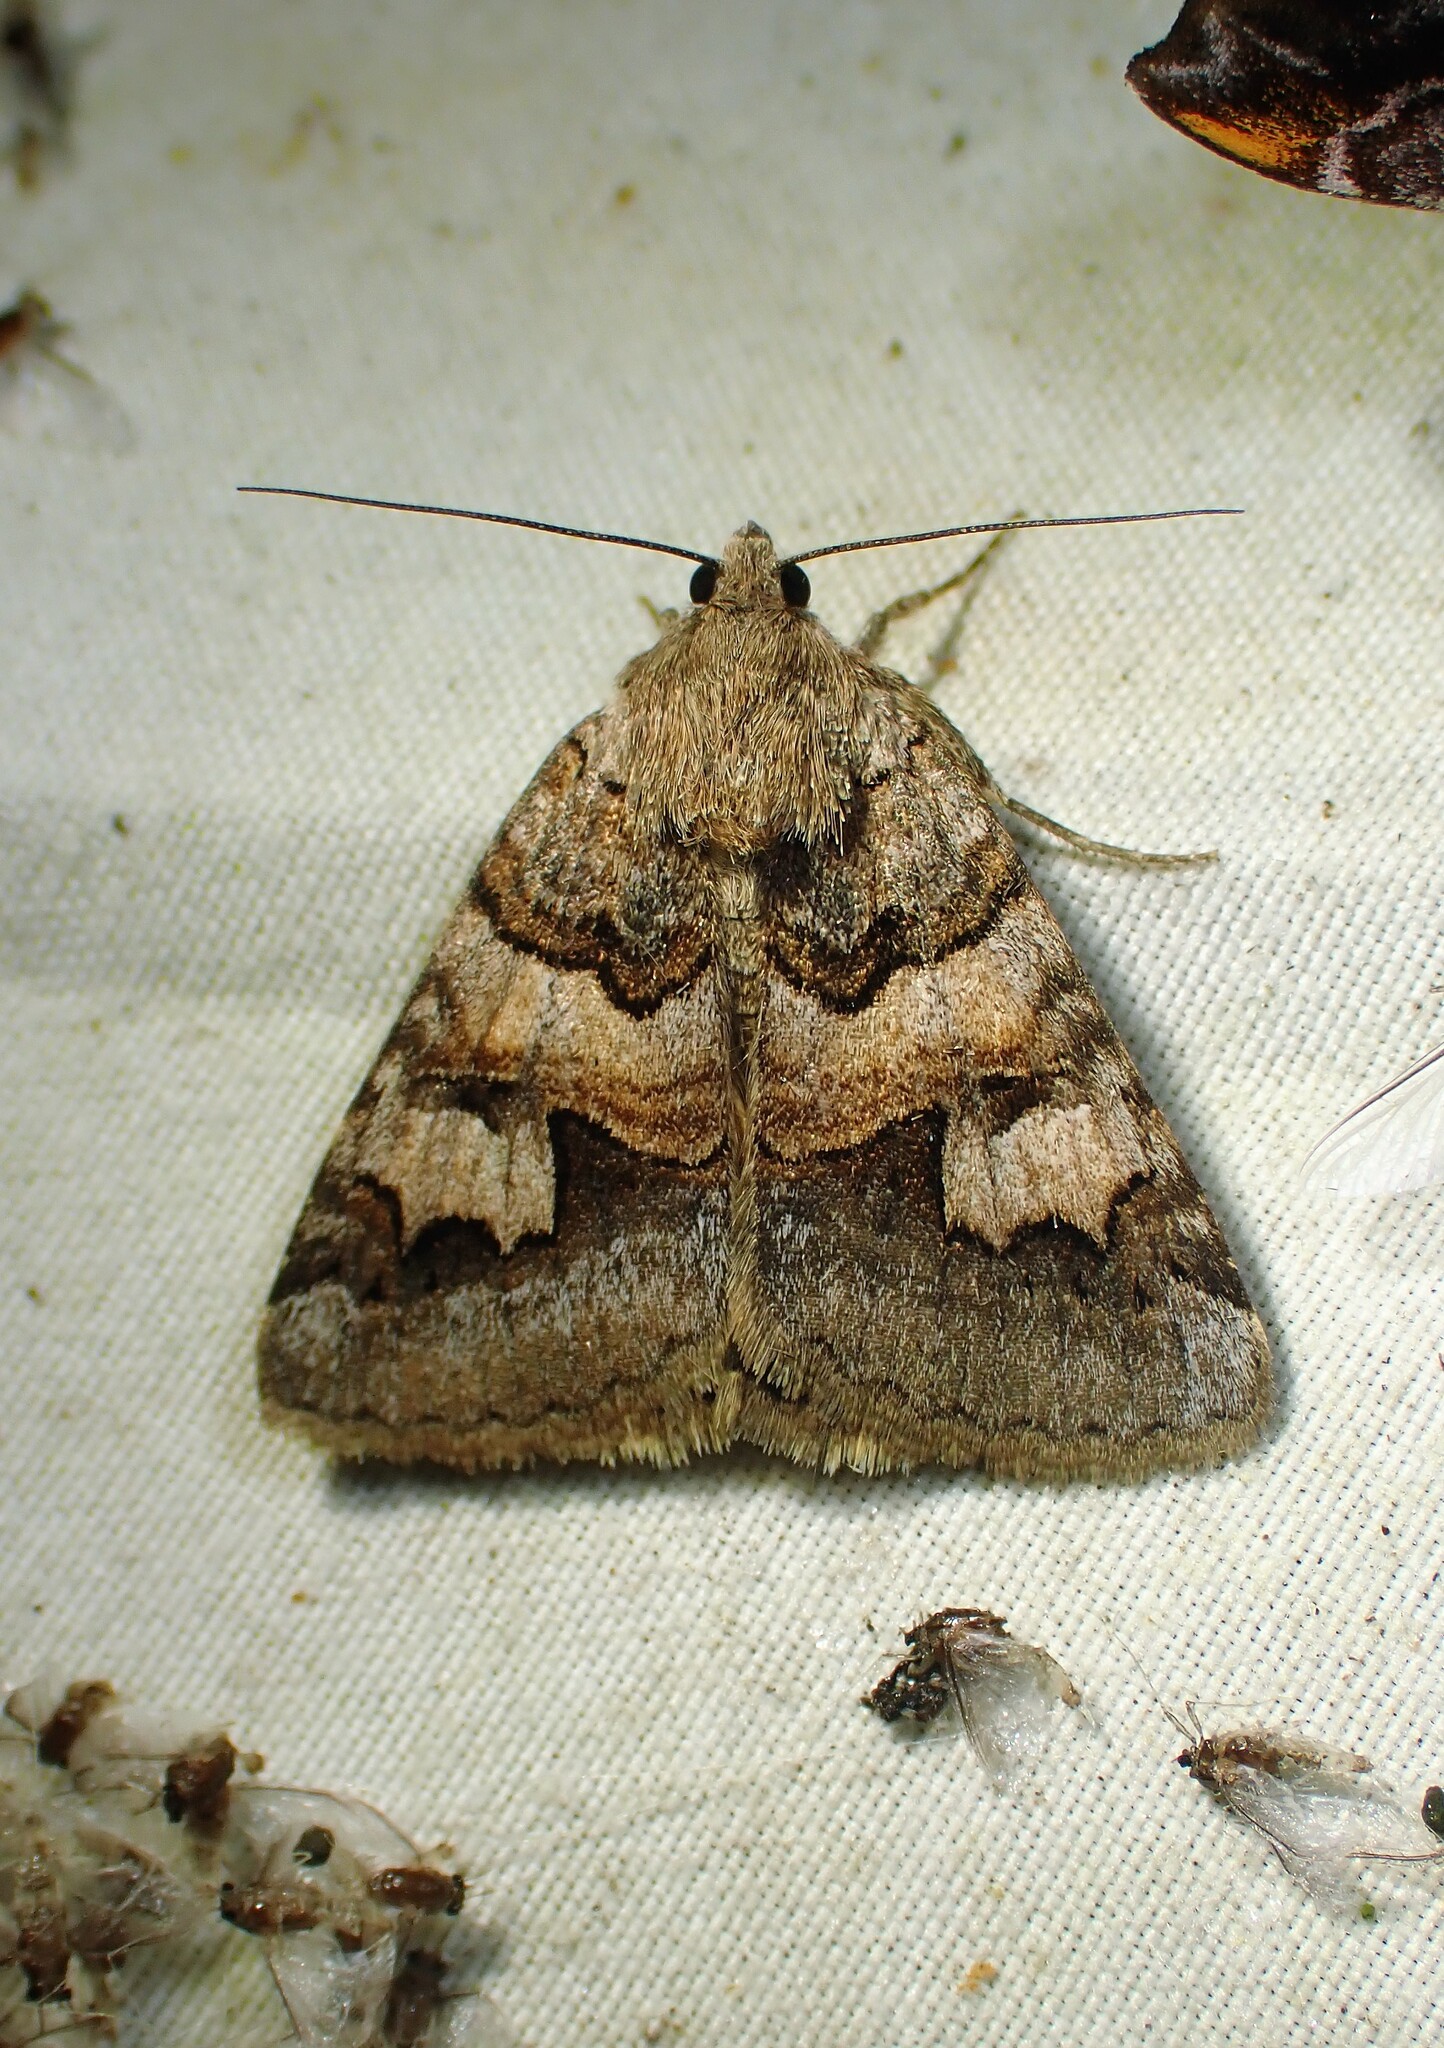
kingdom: Animalia
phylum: Arthropoda
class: Insecta
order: Lepidoptera
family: Erebidae
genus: Drasteria
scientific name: Drasteria adumbrata
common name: Shadowy arches
